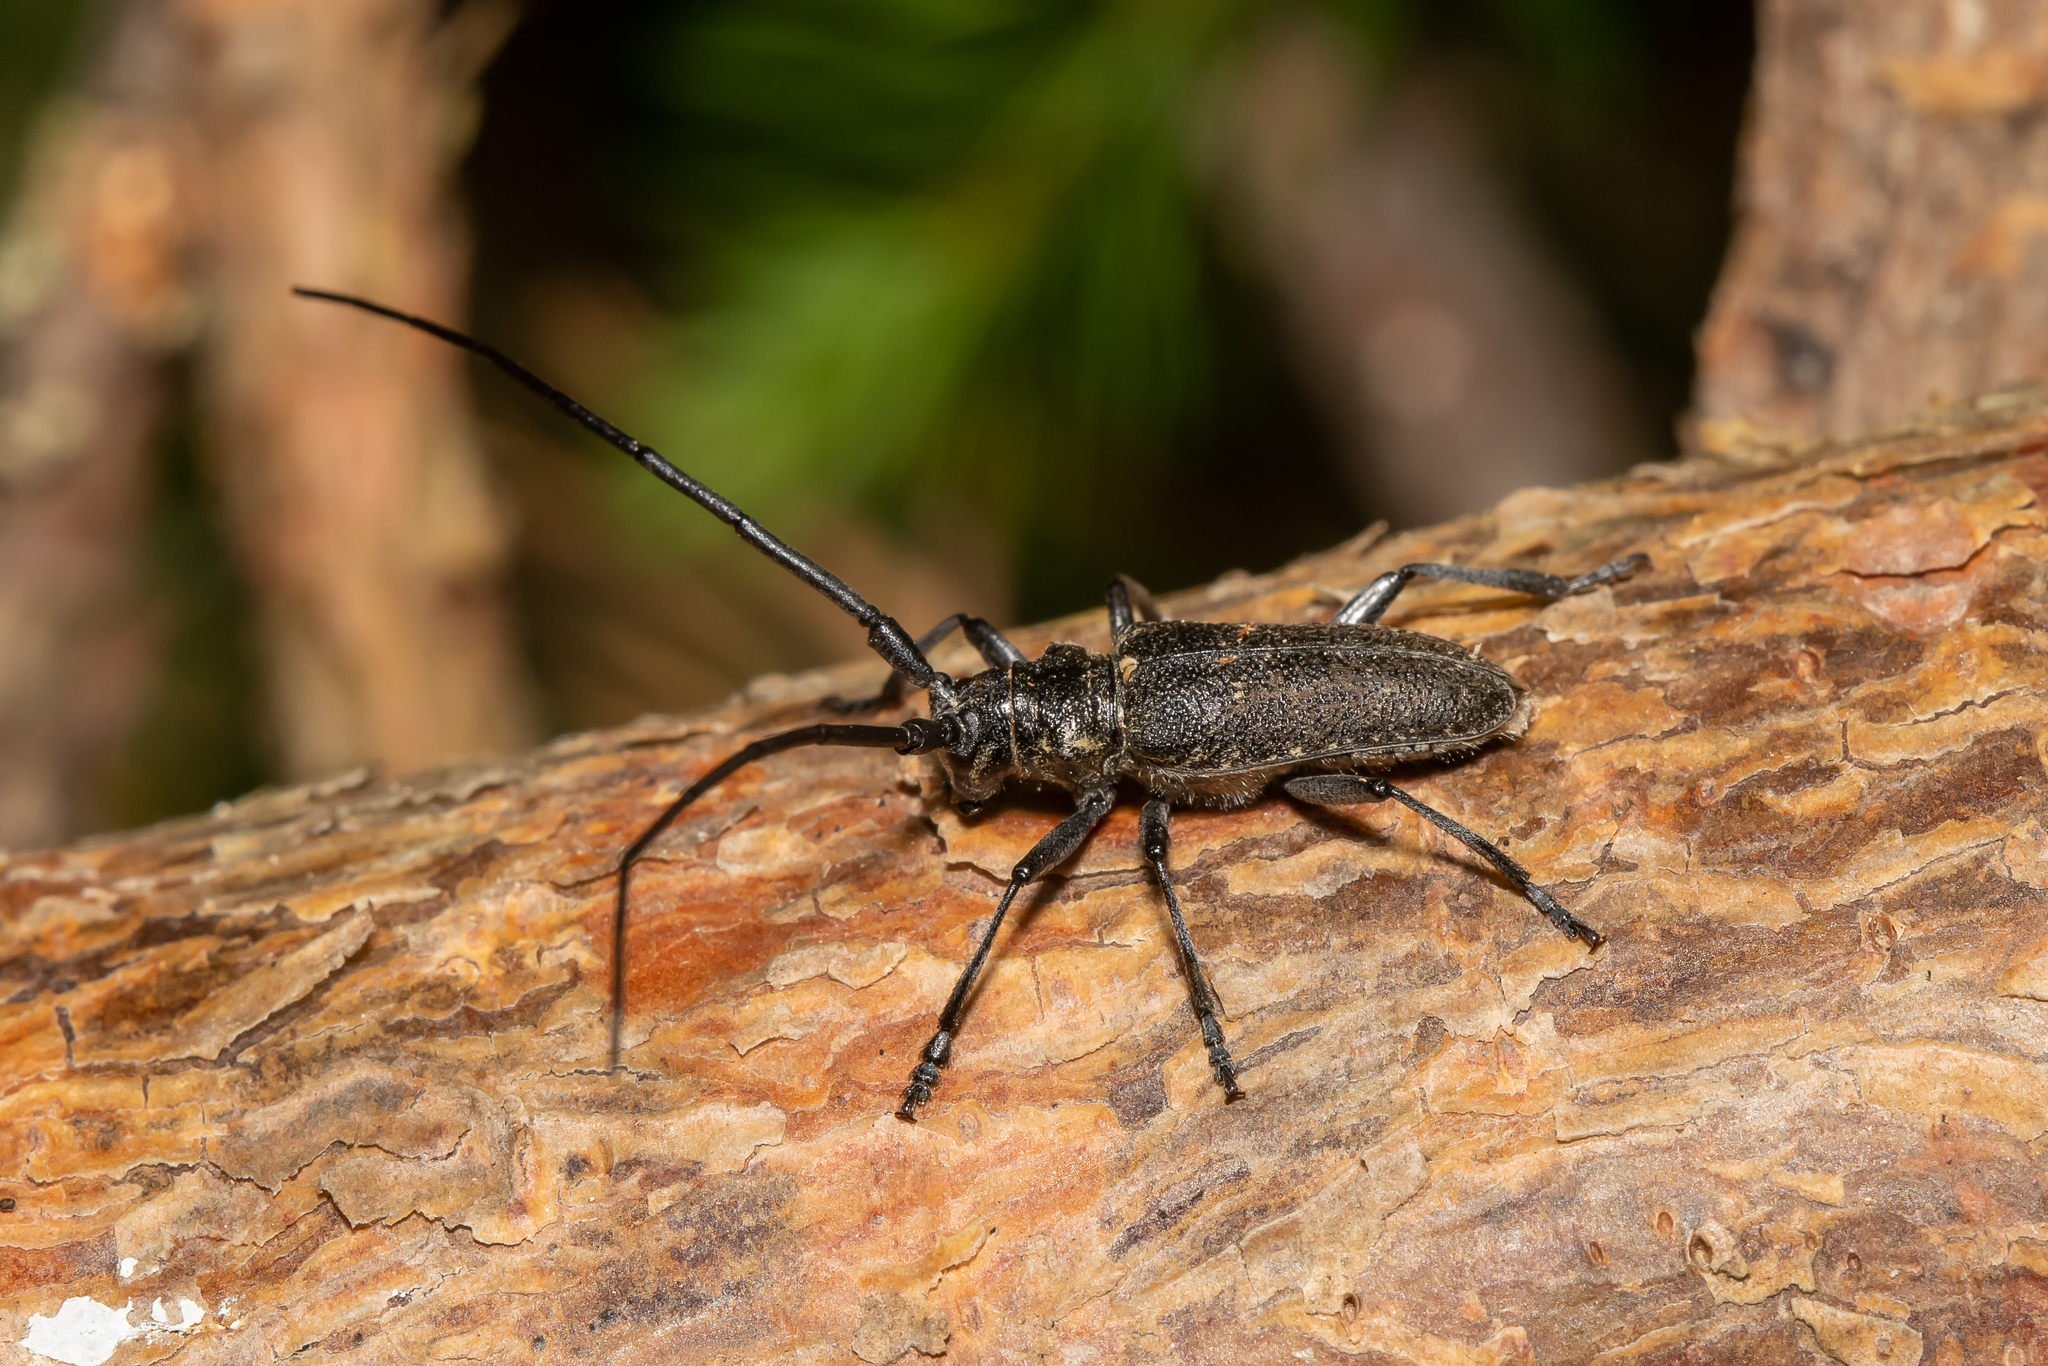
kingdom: Animalia
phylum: Arthropoda
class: Insecta
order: Coleoptera
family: Cerambycidae
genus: Monochamus
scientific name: Monochamus sutor
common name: Pine sawyer
